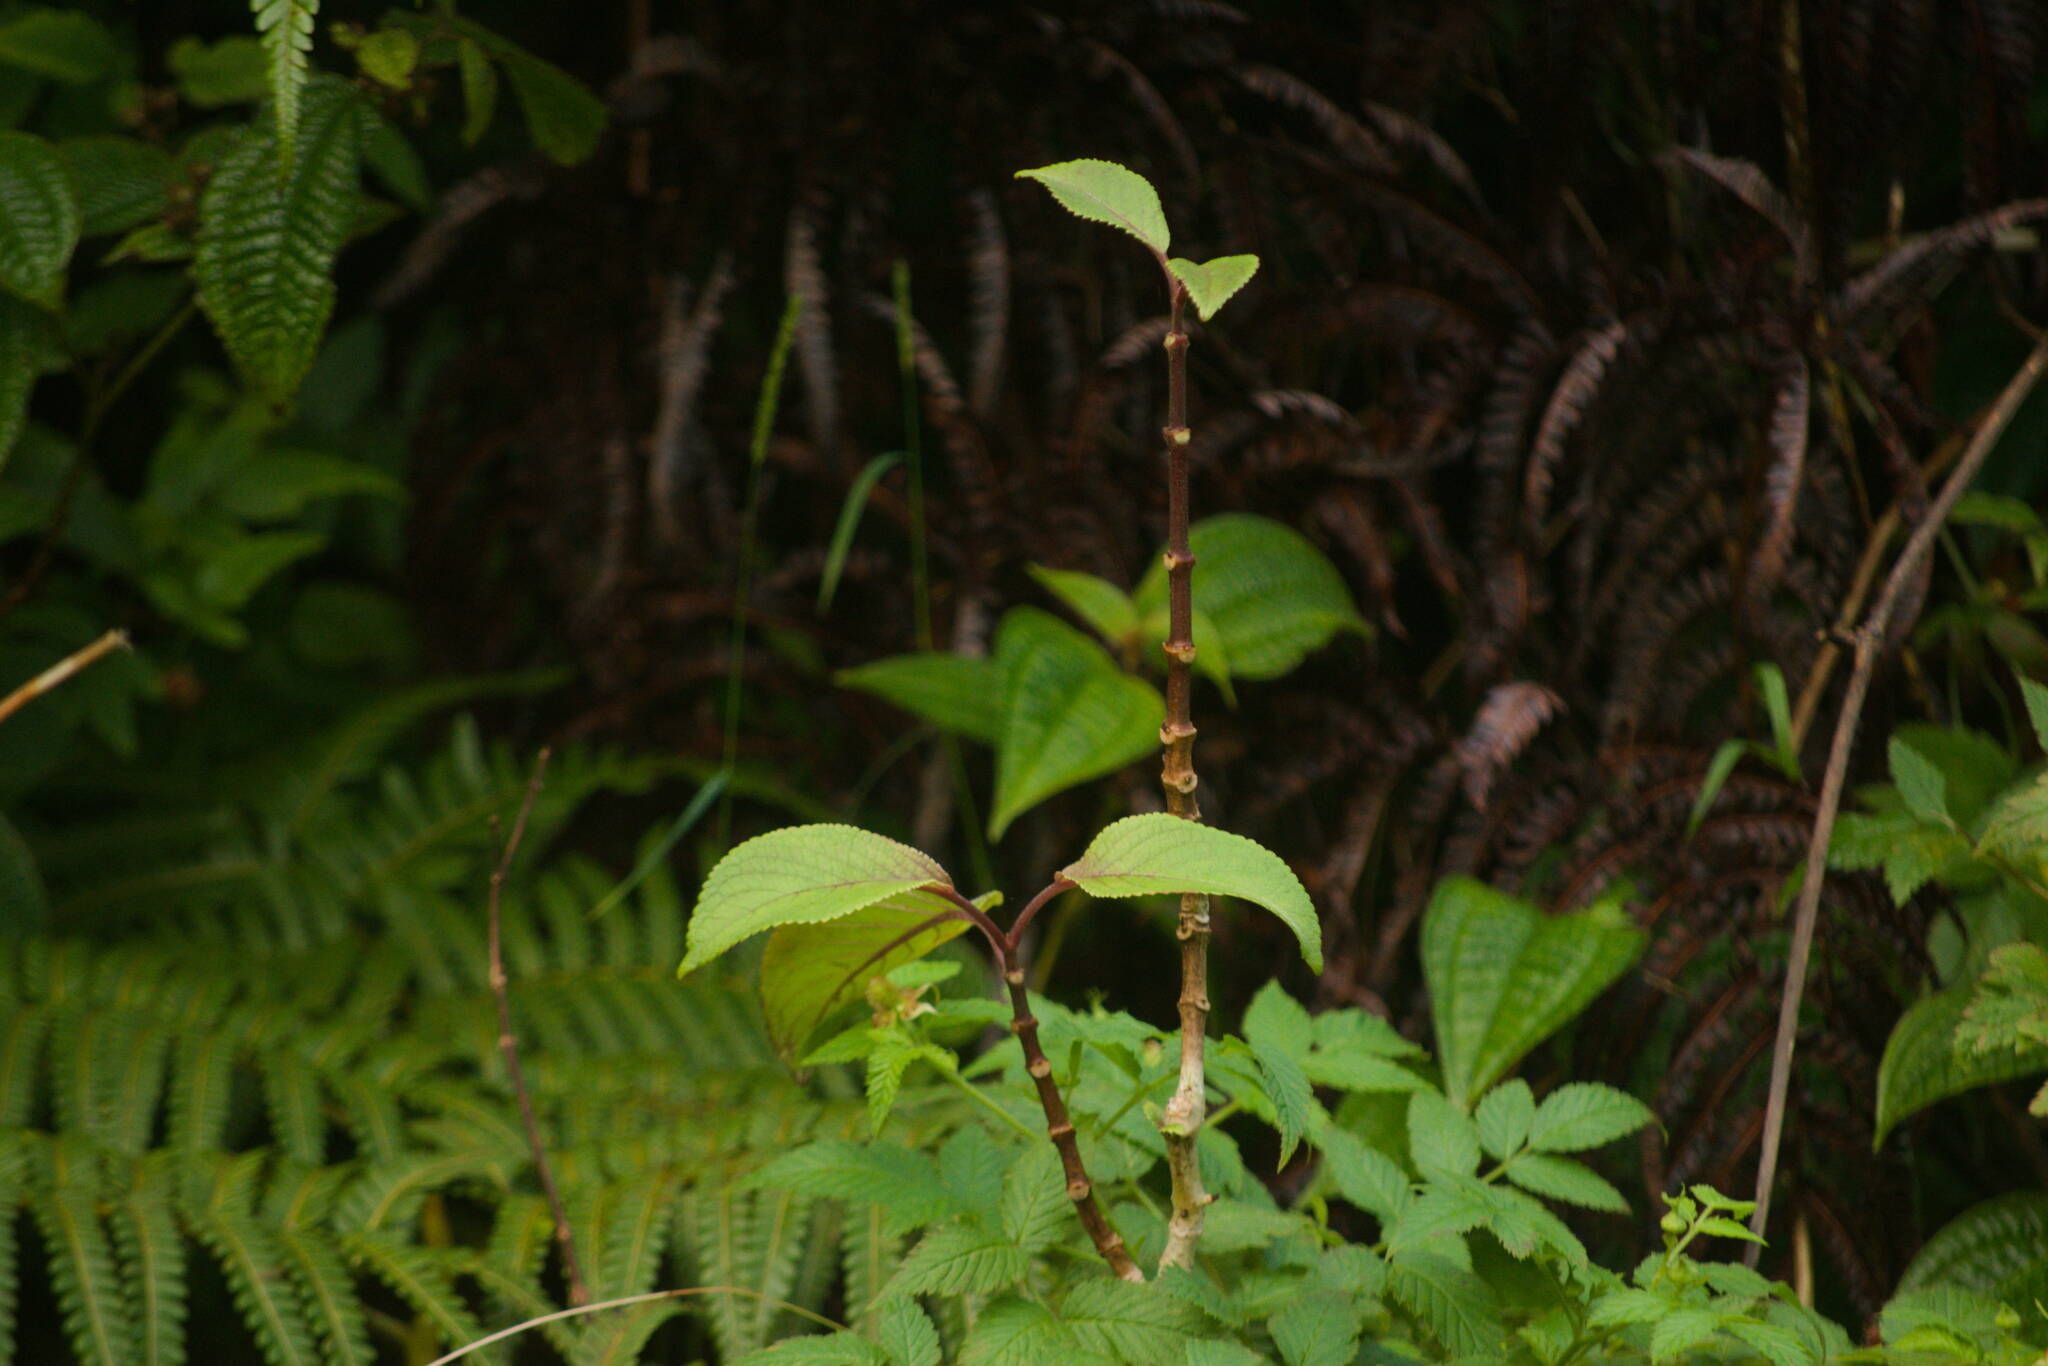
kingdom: Plantae
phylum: Tracheophyta
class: Magnoliopsida
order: Lamiales
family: Lamiaceae
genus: Phyllostegia
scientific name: Phyllostegia grandiflora
